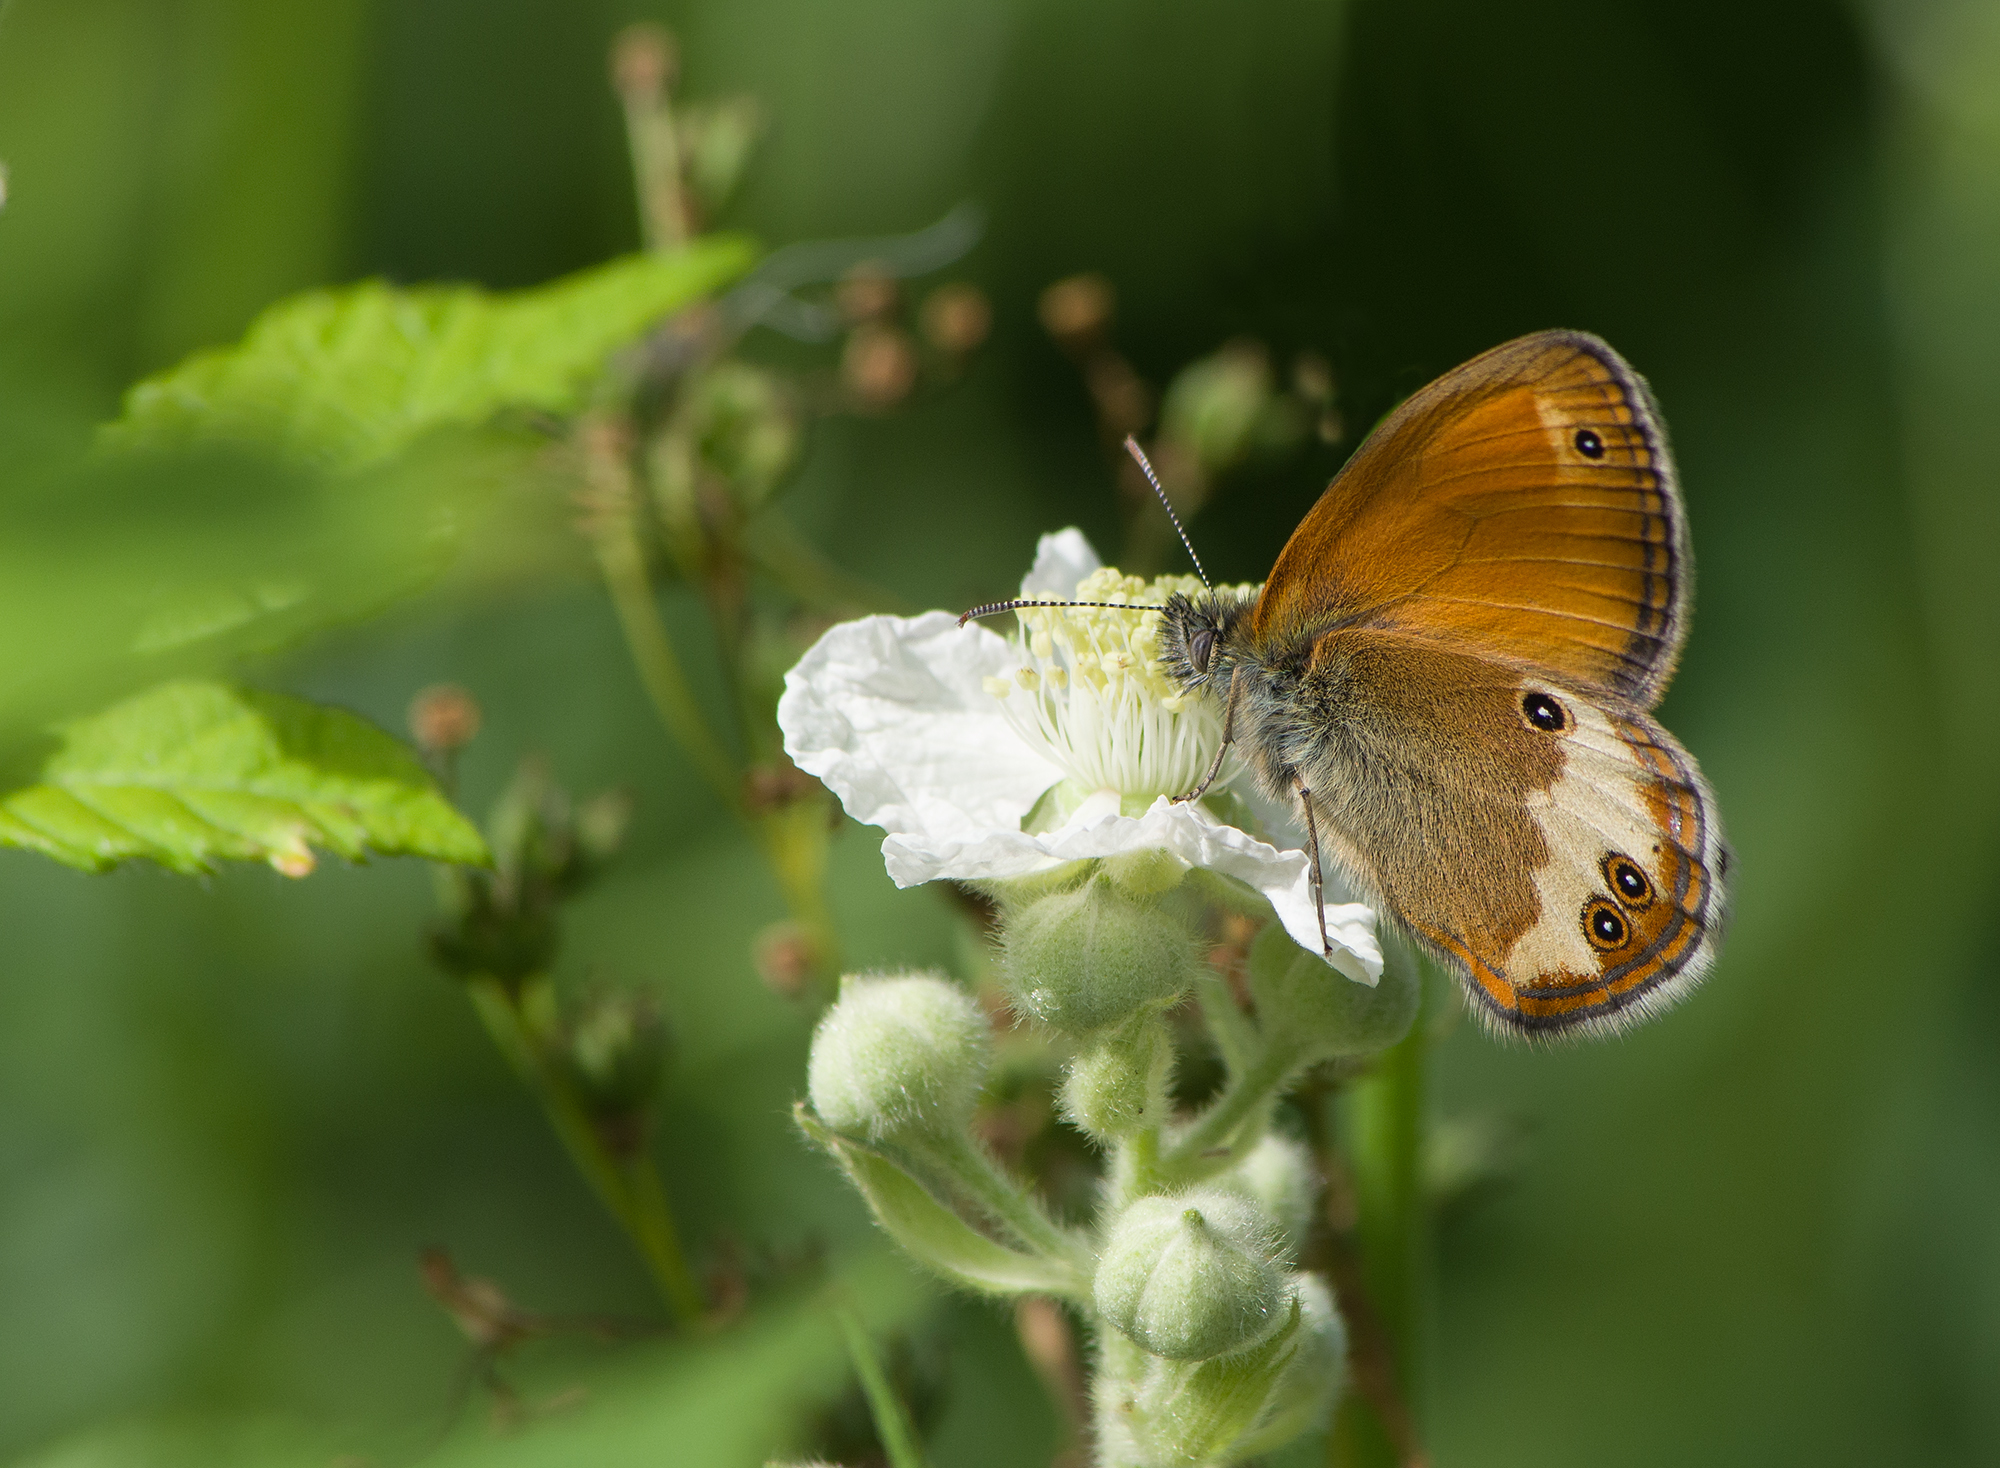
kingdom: Animalia
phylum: Arthropoda
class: Insecta
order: Lepidoptera
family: Nymphalidae
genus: Coenonympha
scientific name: Coenonympha arcania
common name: Pearly heath
